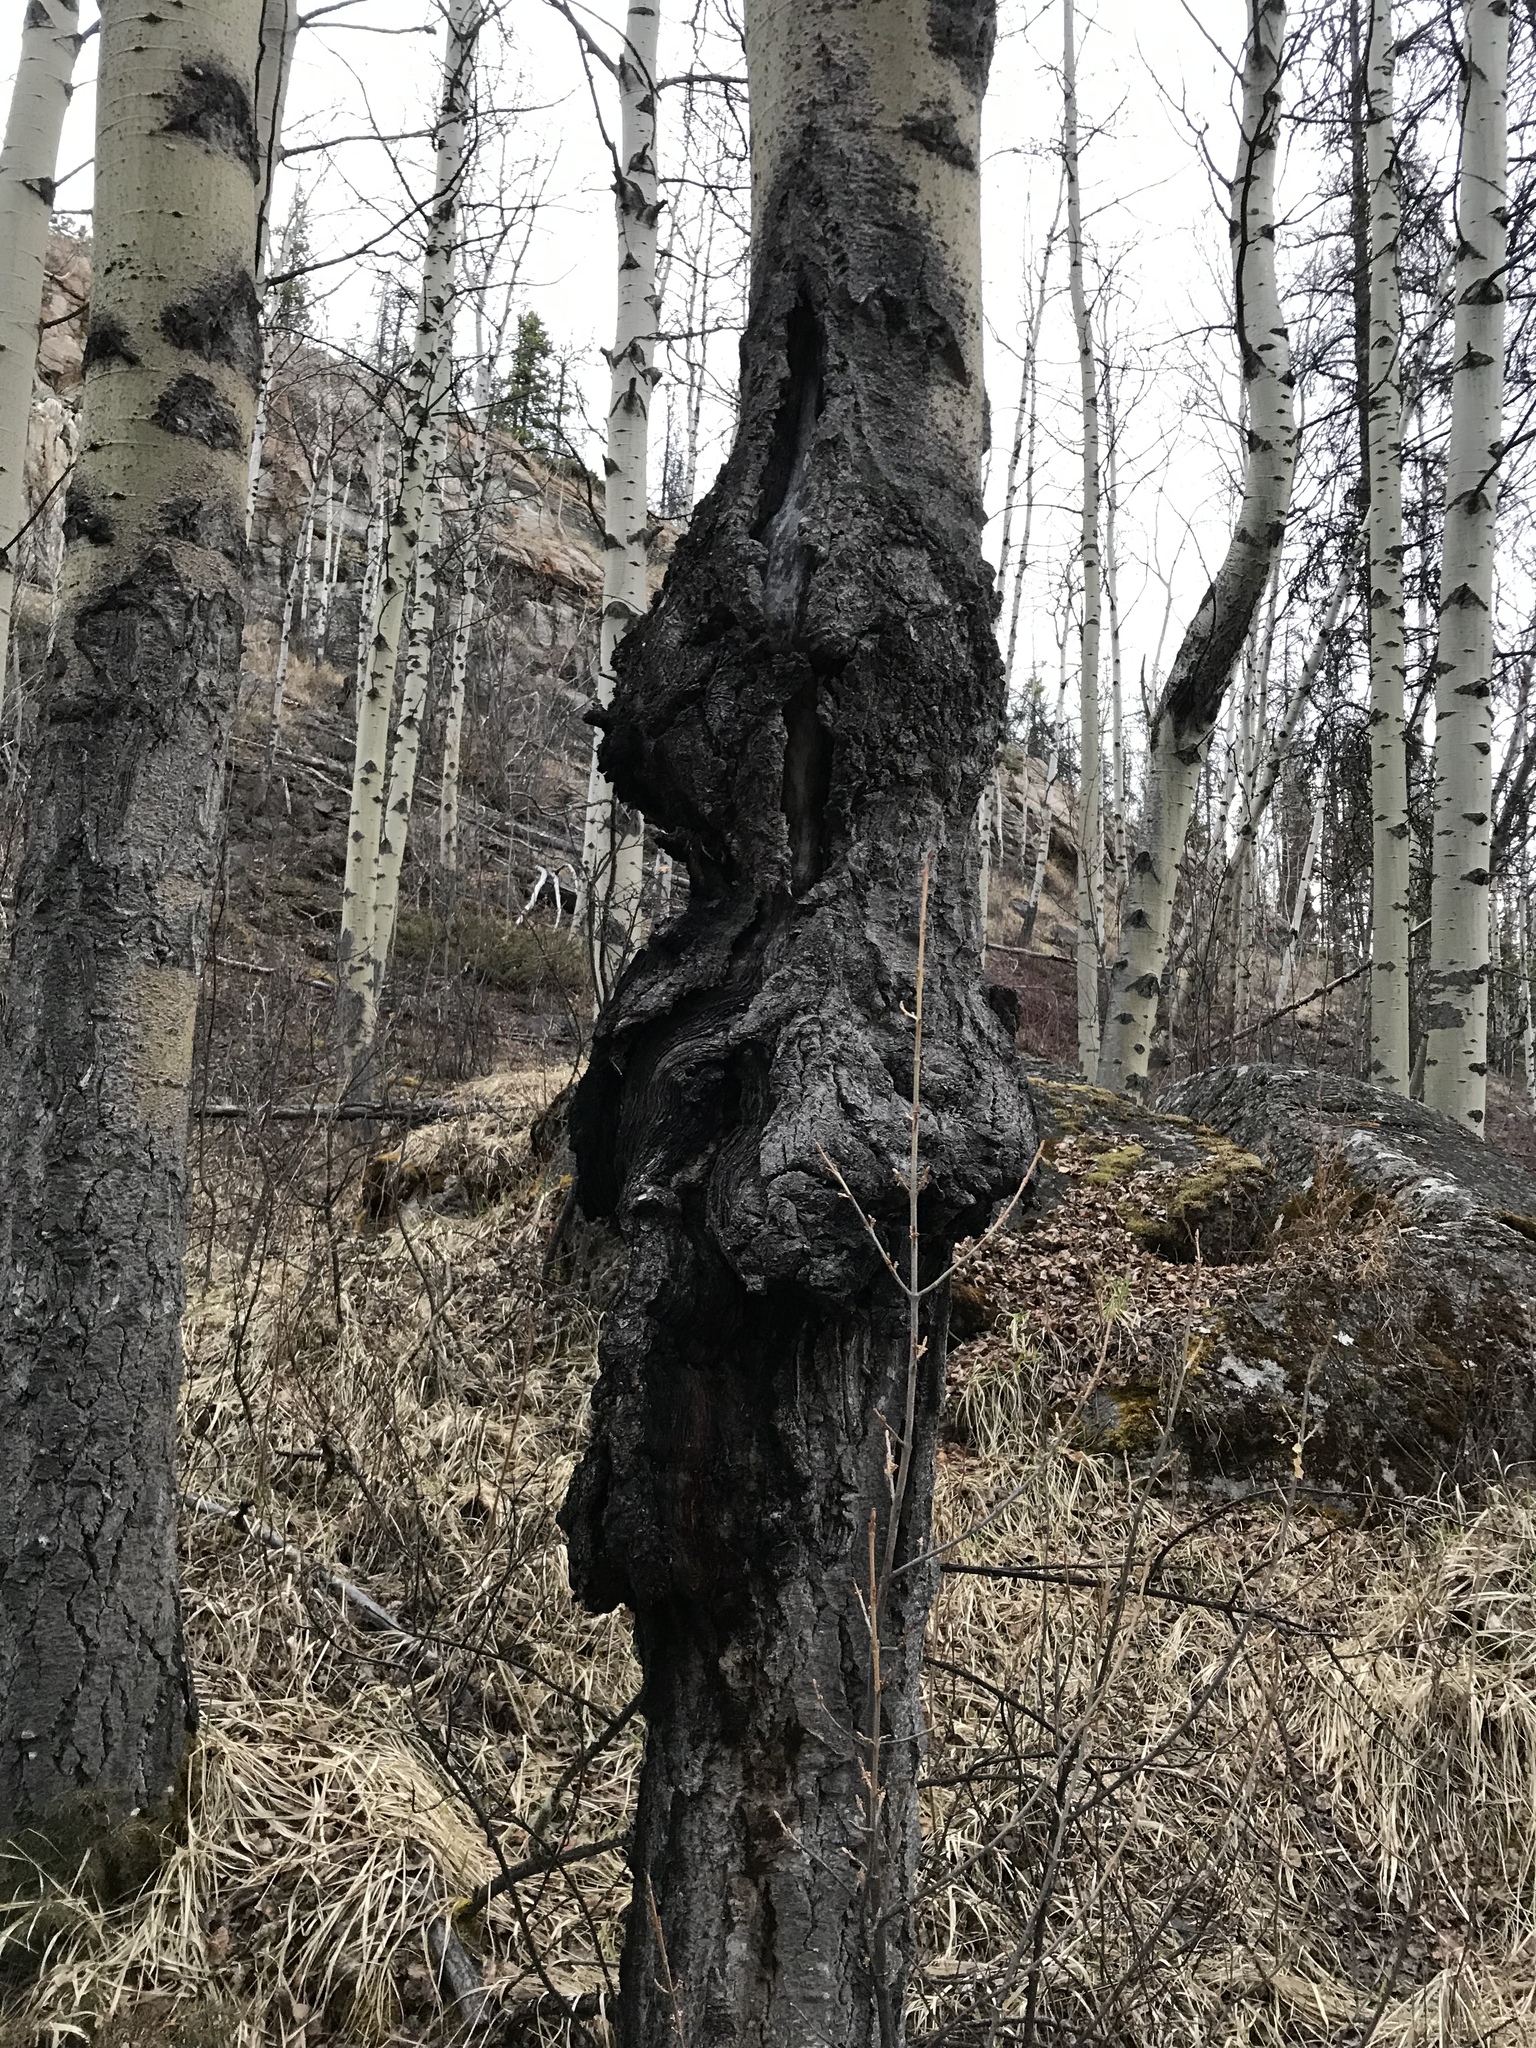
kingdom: Fungi
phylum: Ascomycota
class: Dothideomycetes
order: Botryosphaeriales
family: Botryosphaeriaceae
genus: Diplodia
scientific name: Diplodia tumefaciens
